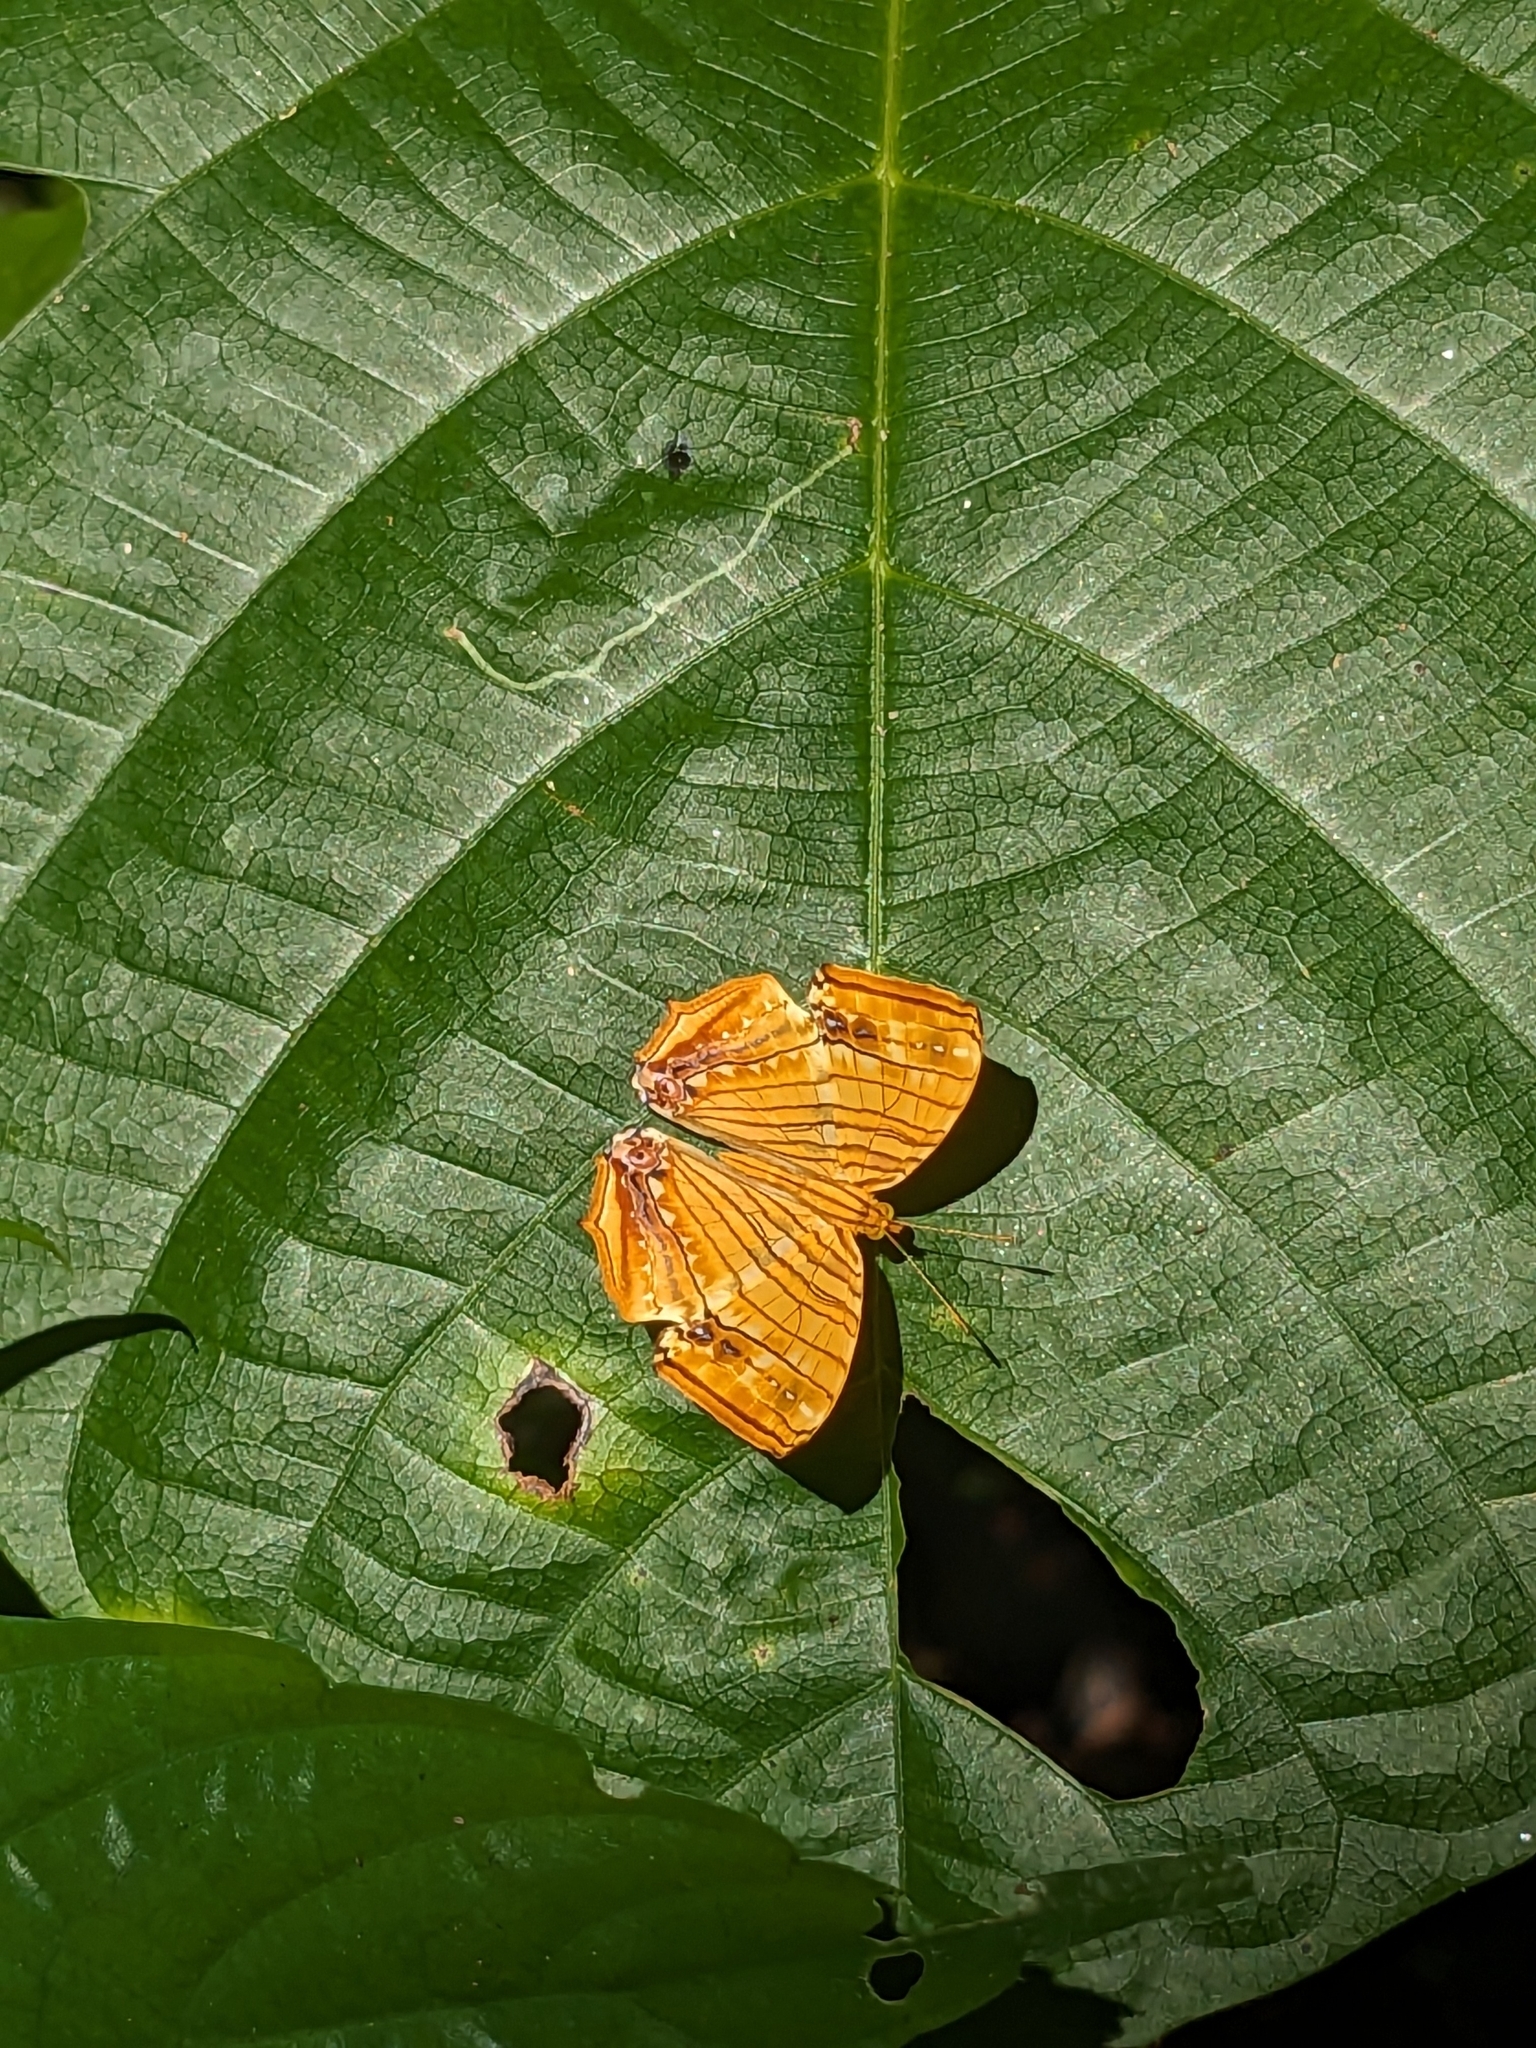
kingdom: Animalia
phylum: Arthropoda
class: Insecta
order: Lepidoptera
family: Nymphalidae
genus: Chersonesia
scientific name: Chersonesia risa
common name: Common maplet
